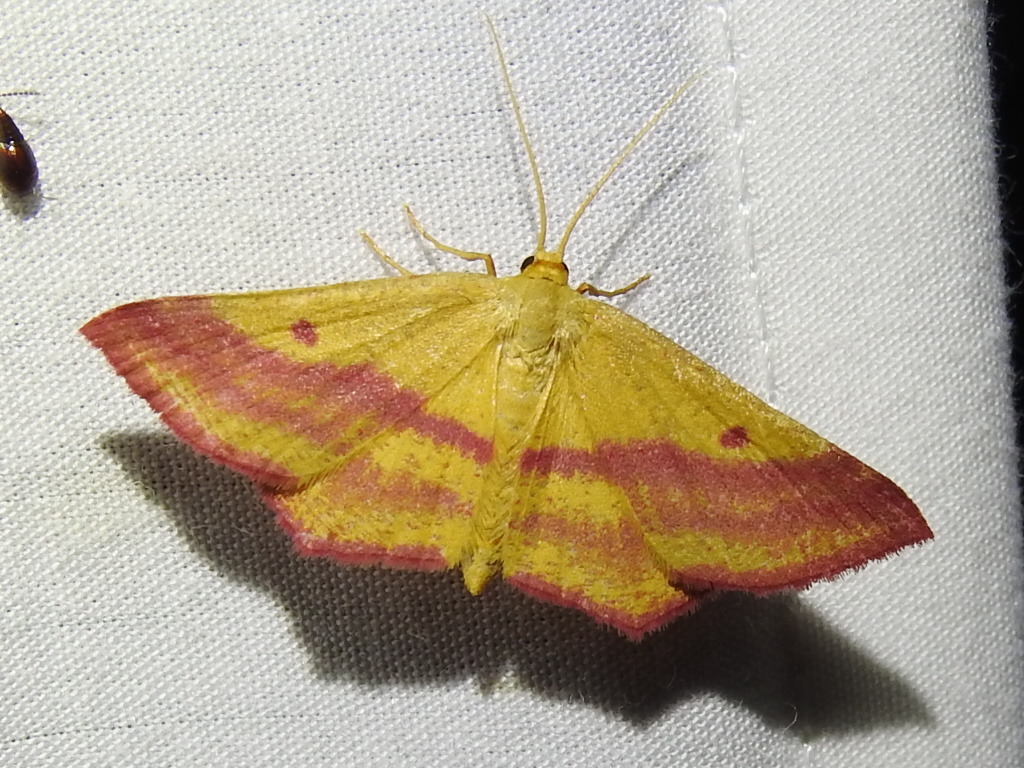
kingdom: Animalia
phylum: Arthropoda
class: Insecta
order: Lepidoptera
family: Geometridae
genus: Haematopis
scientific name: Haematopis grataria
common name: Chickweed geometer
